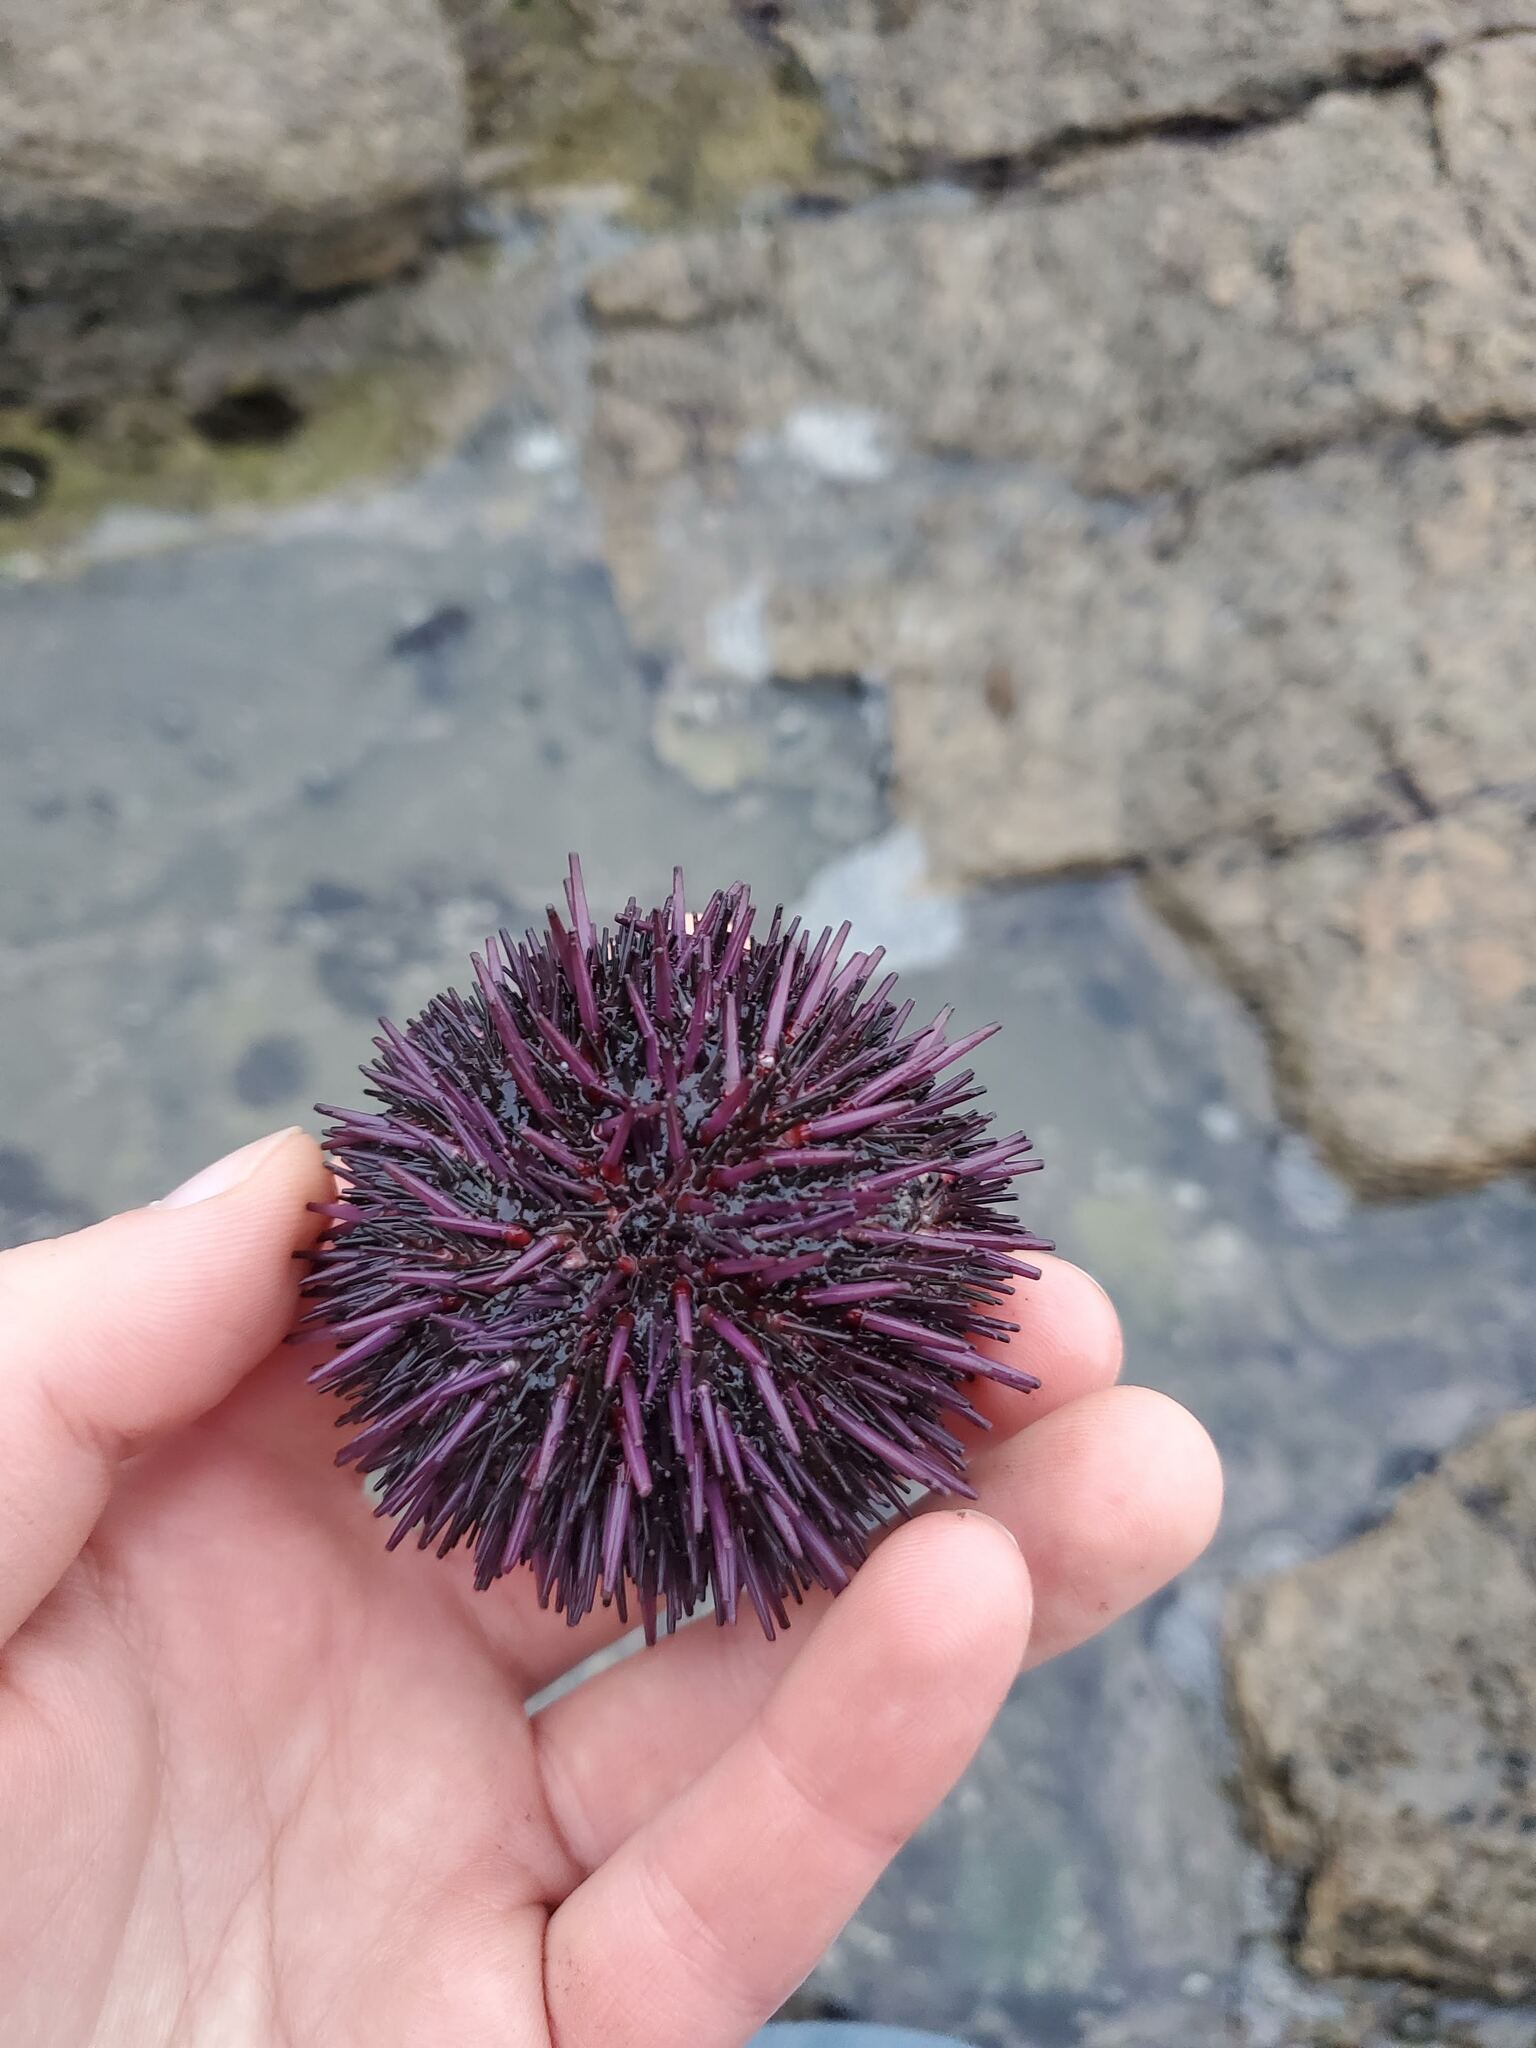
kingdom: Animalia
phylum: Echinodermata
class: Echinoidea
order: Camarodonta
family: Strongylocentrotidae
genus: Strongylocentrotus
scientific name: Strongylocentrotus purpuratus
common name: Purple sea urchin
